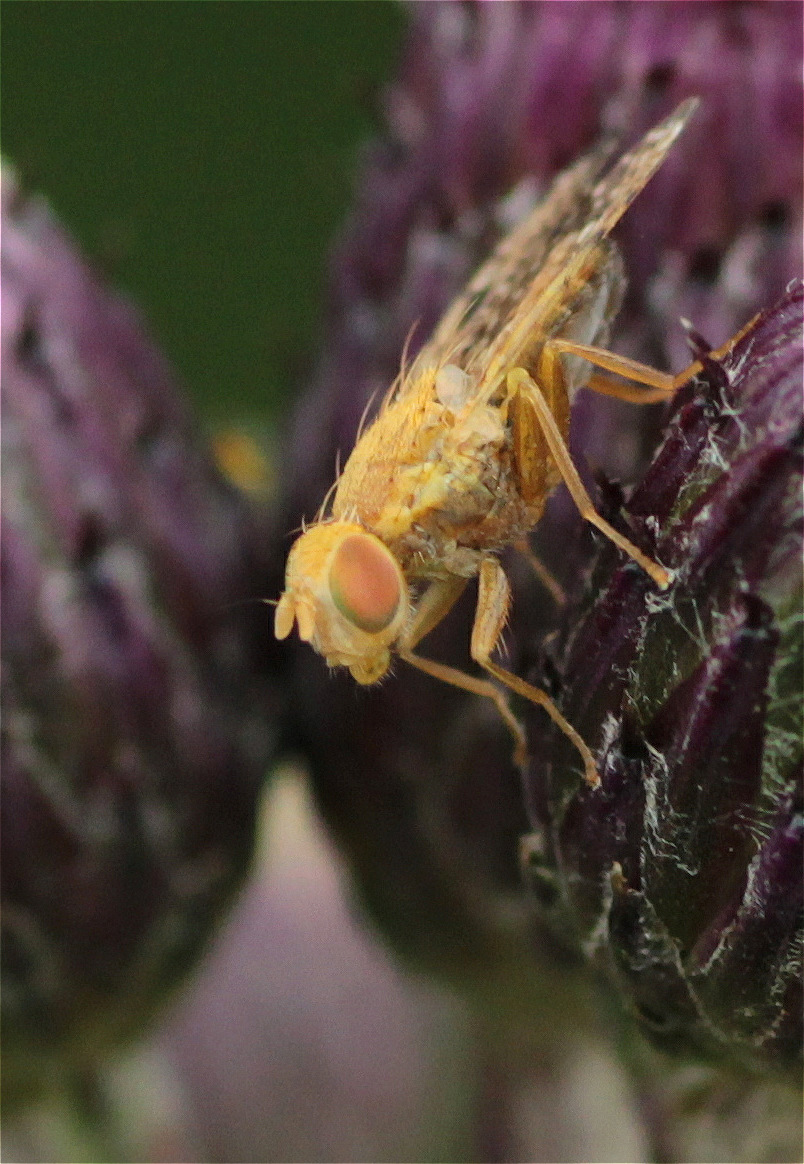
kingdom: Animalia
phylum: Arthropoda
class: Insecta
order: Diptera
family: Tephritidae
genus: Xyphosia
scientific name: Xyphosia miliaria
